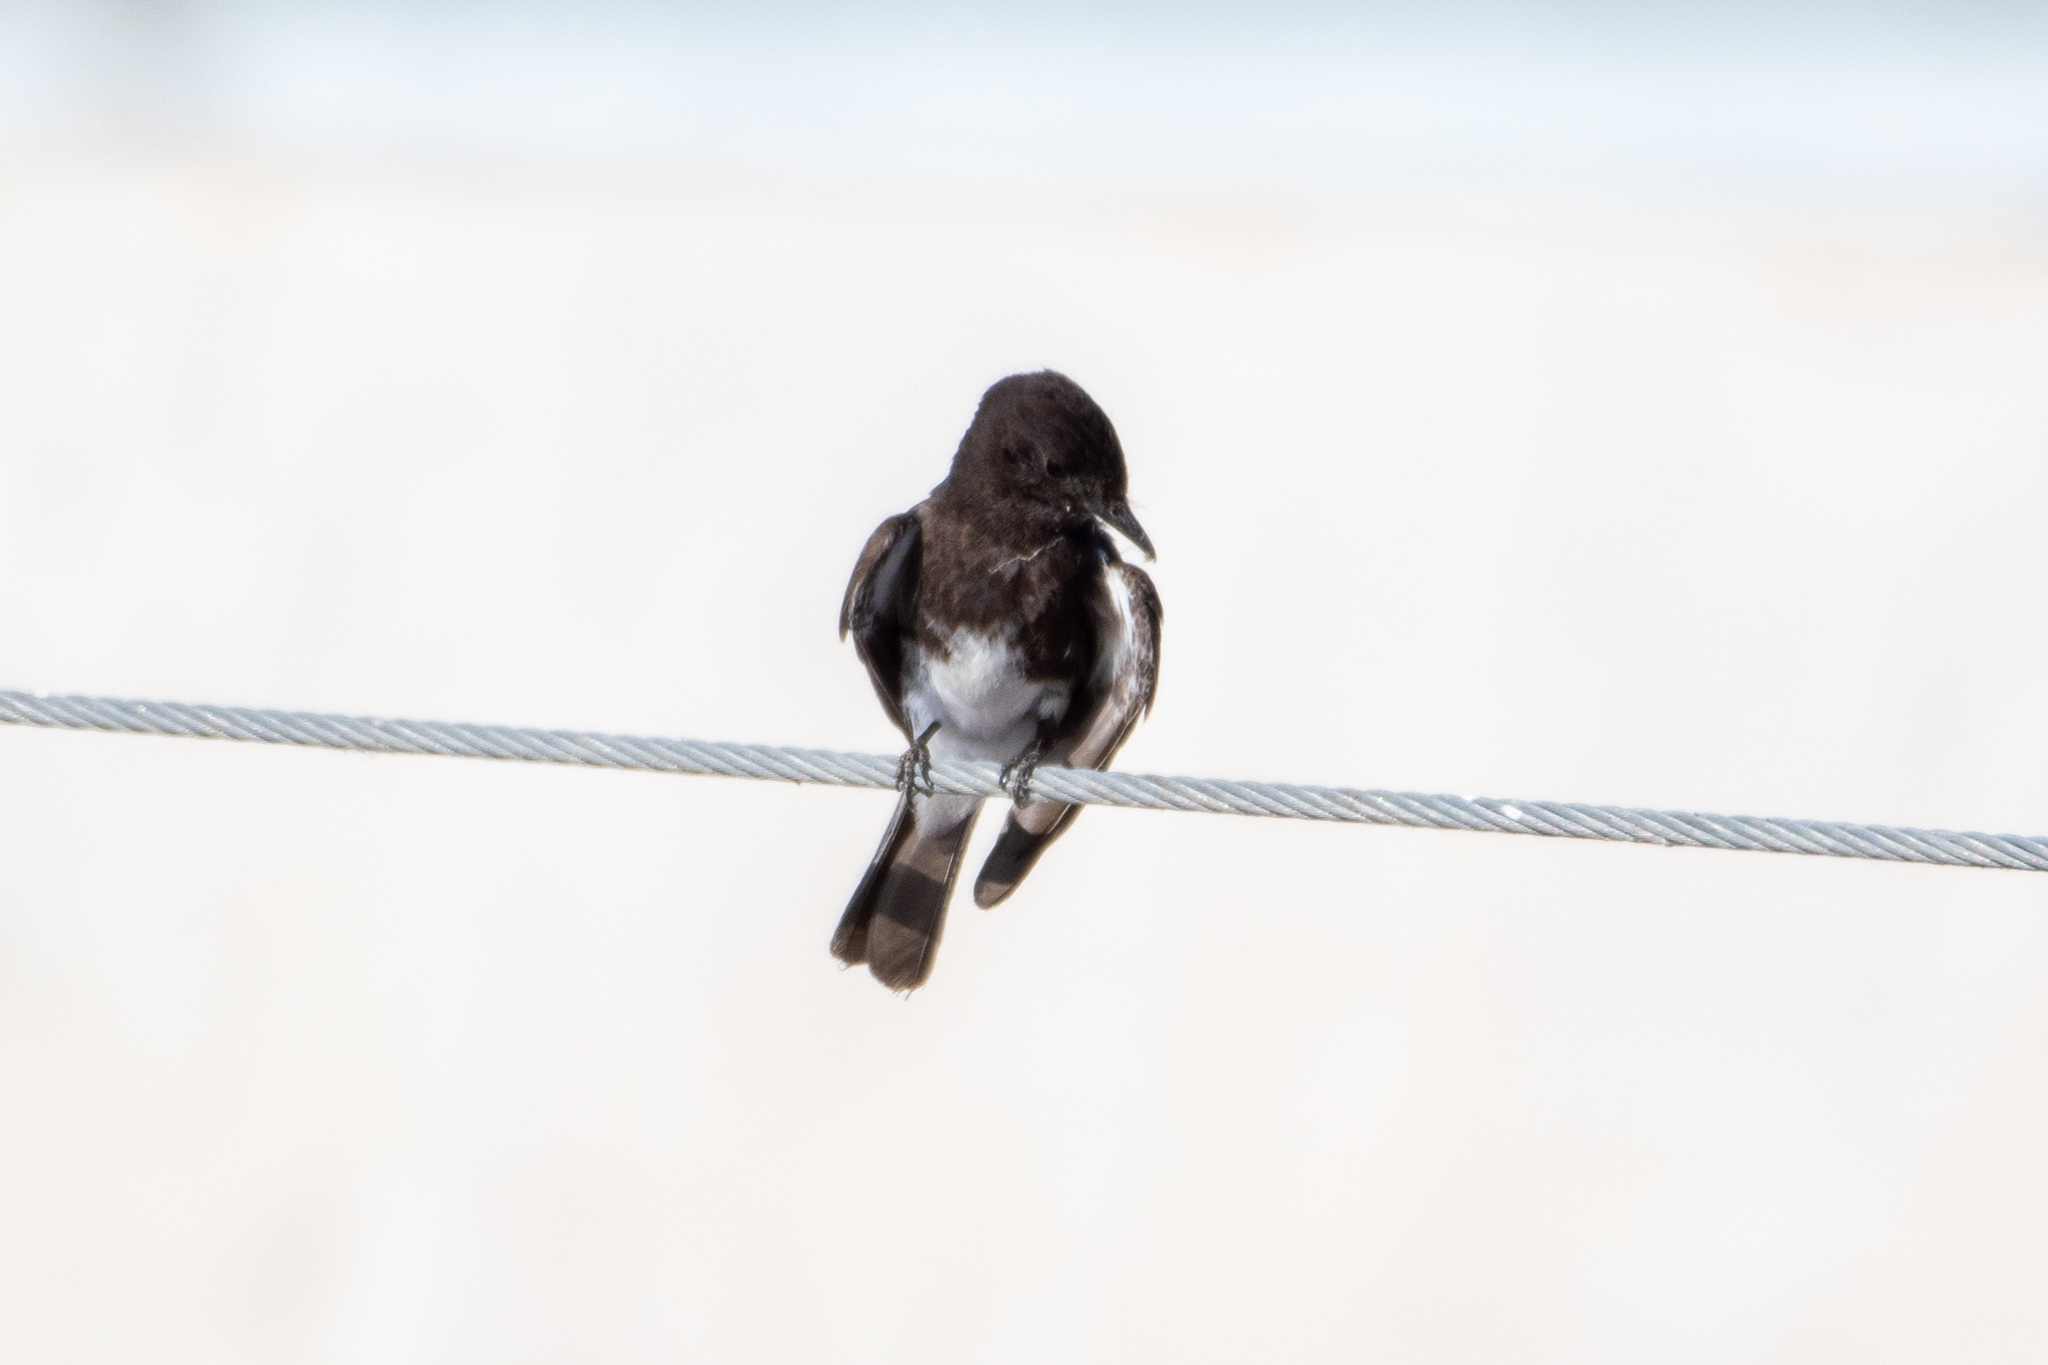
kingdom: Animalia
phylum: Chordata
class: Aves
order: Passeriformes
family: Tyrannidae
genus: Sayornis
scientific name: Sayornis nigricans
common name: Black phoebe
